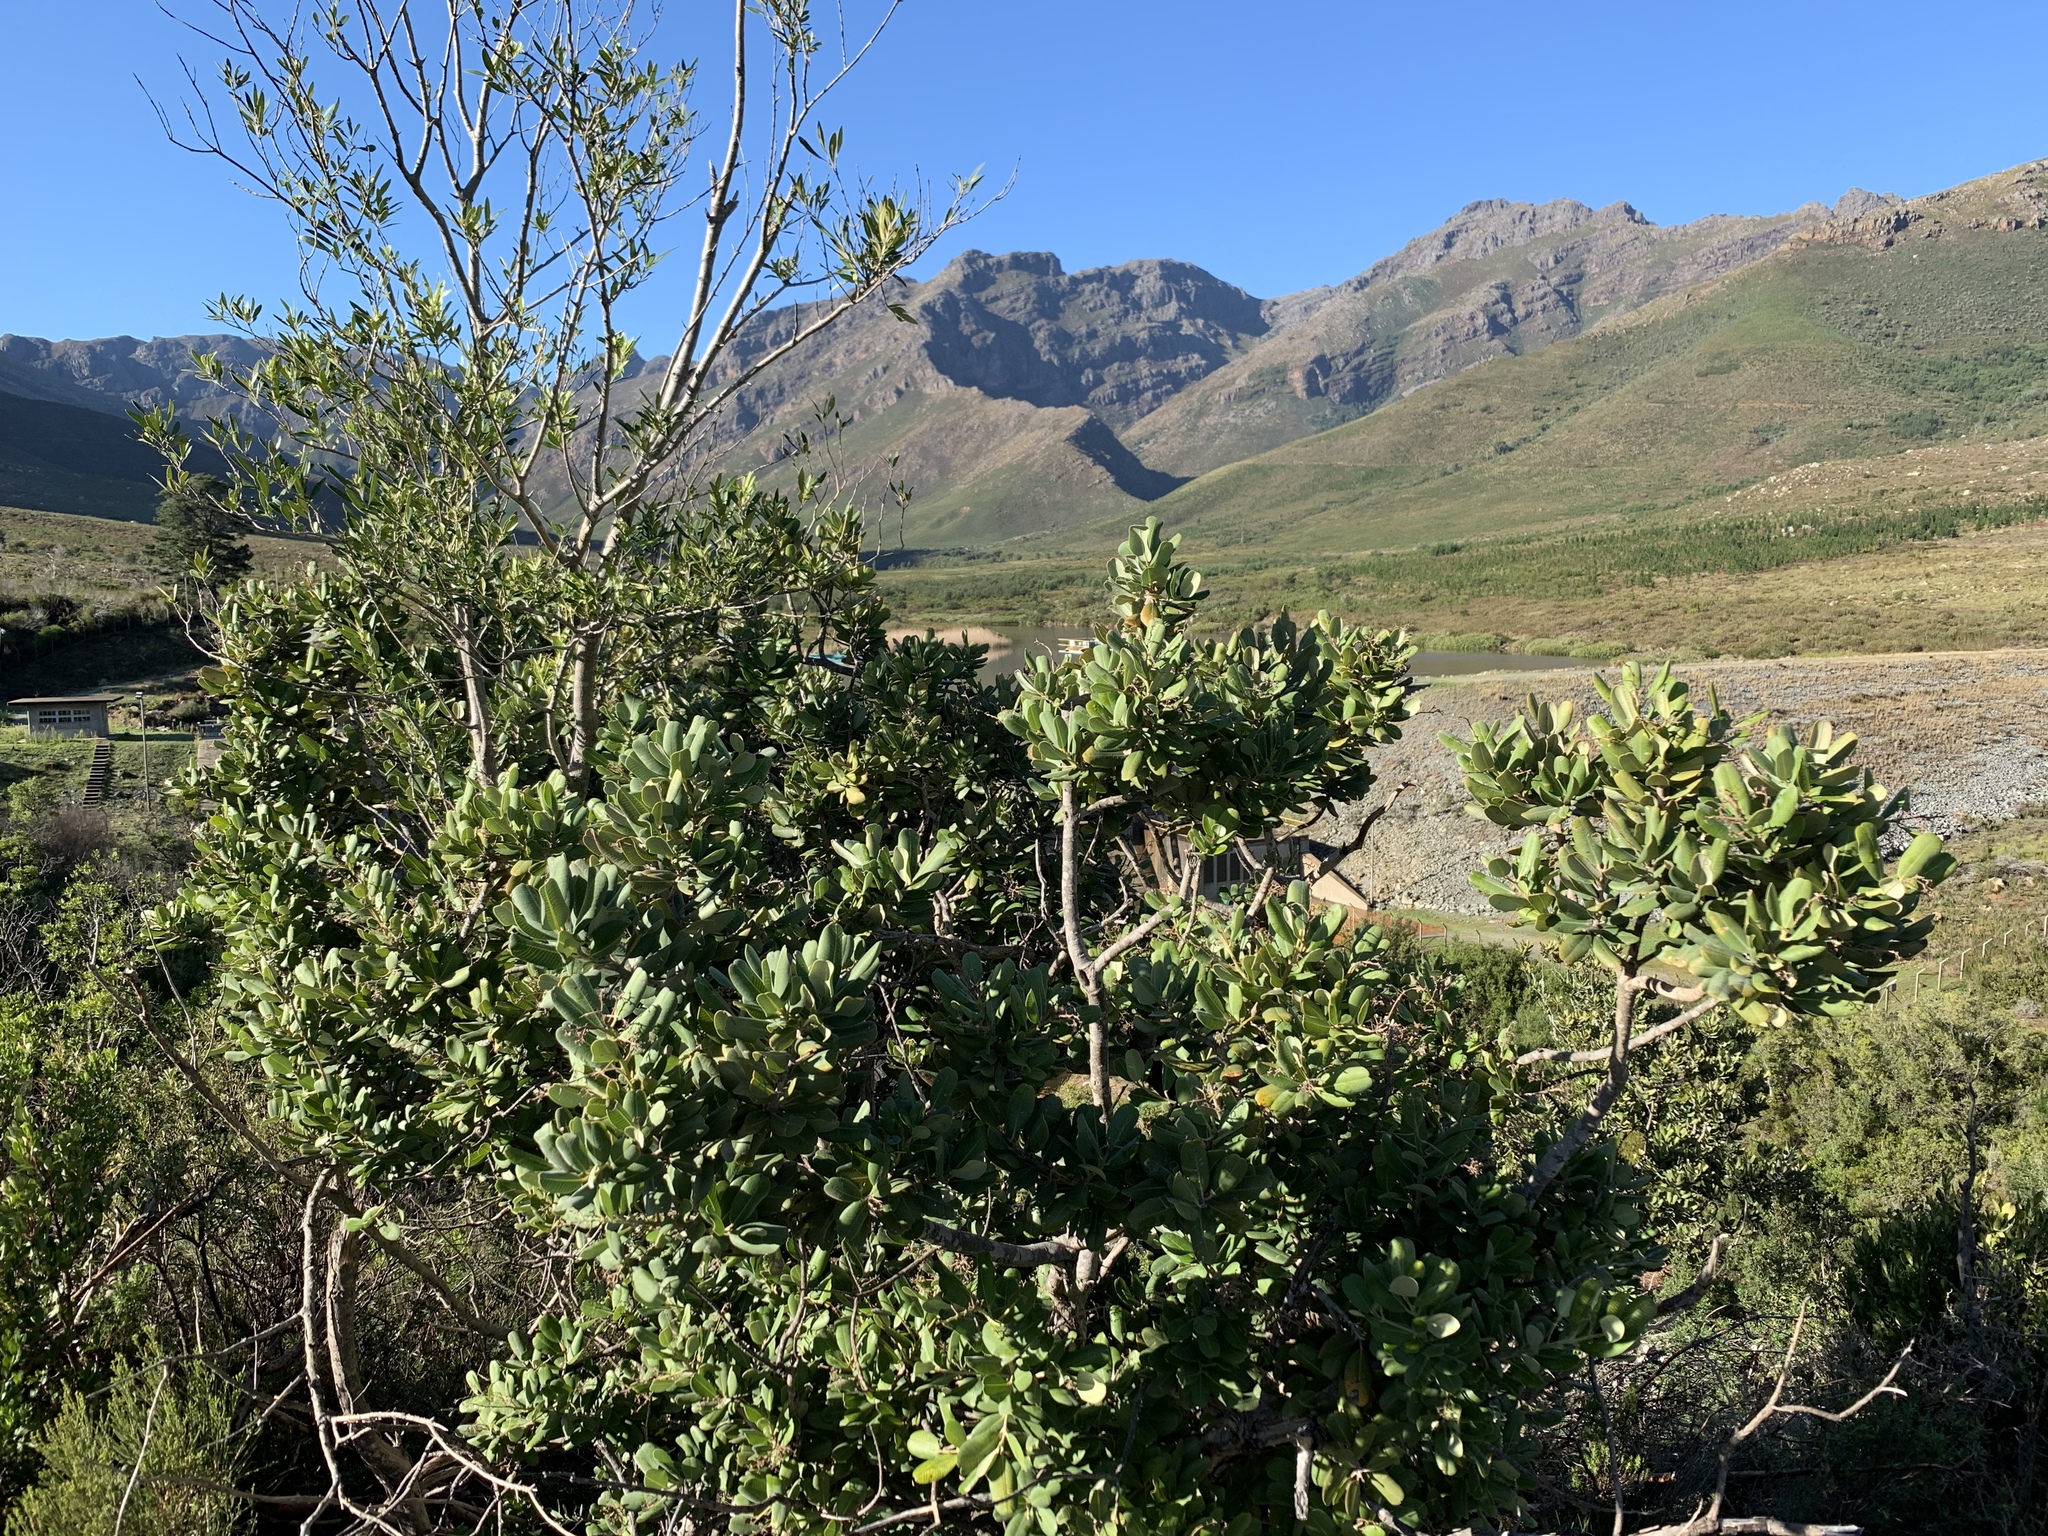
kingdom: Plantae
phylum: Tracheophyta
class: Magnoliopsida
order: Sapindales
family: Anacardiaceae
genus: Heeria
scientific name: Heeria argentea
